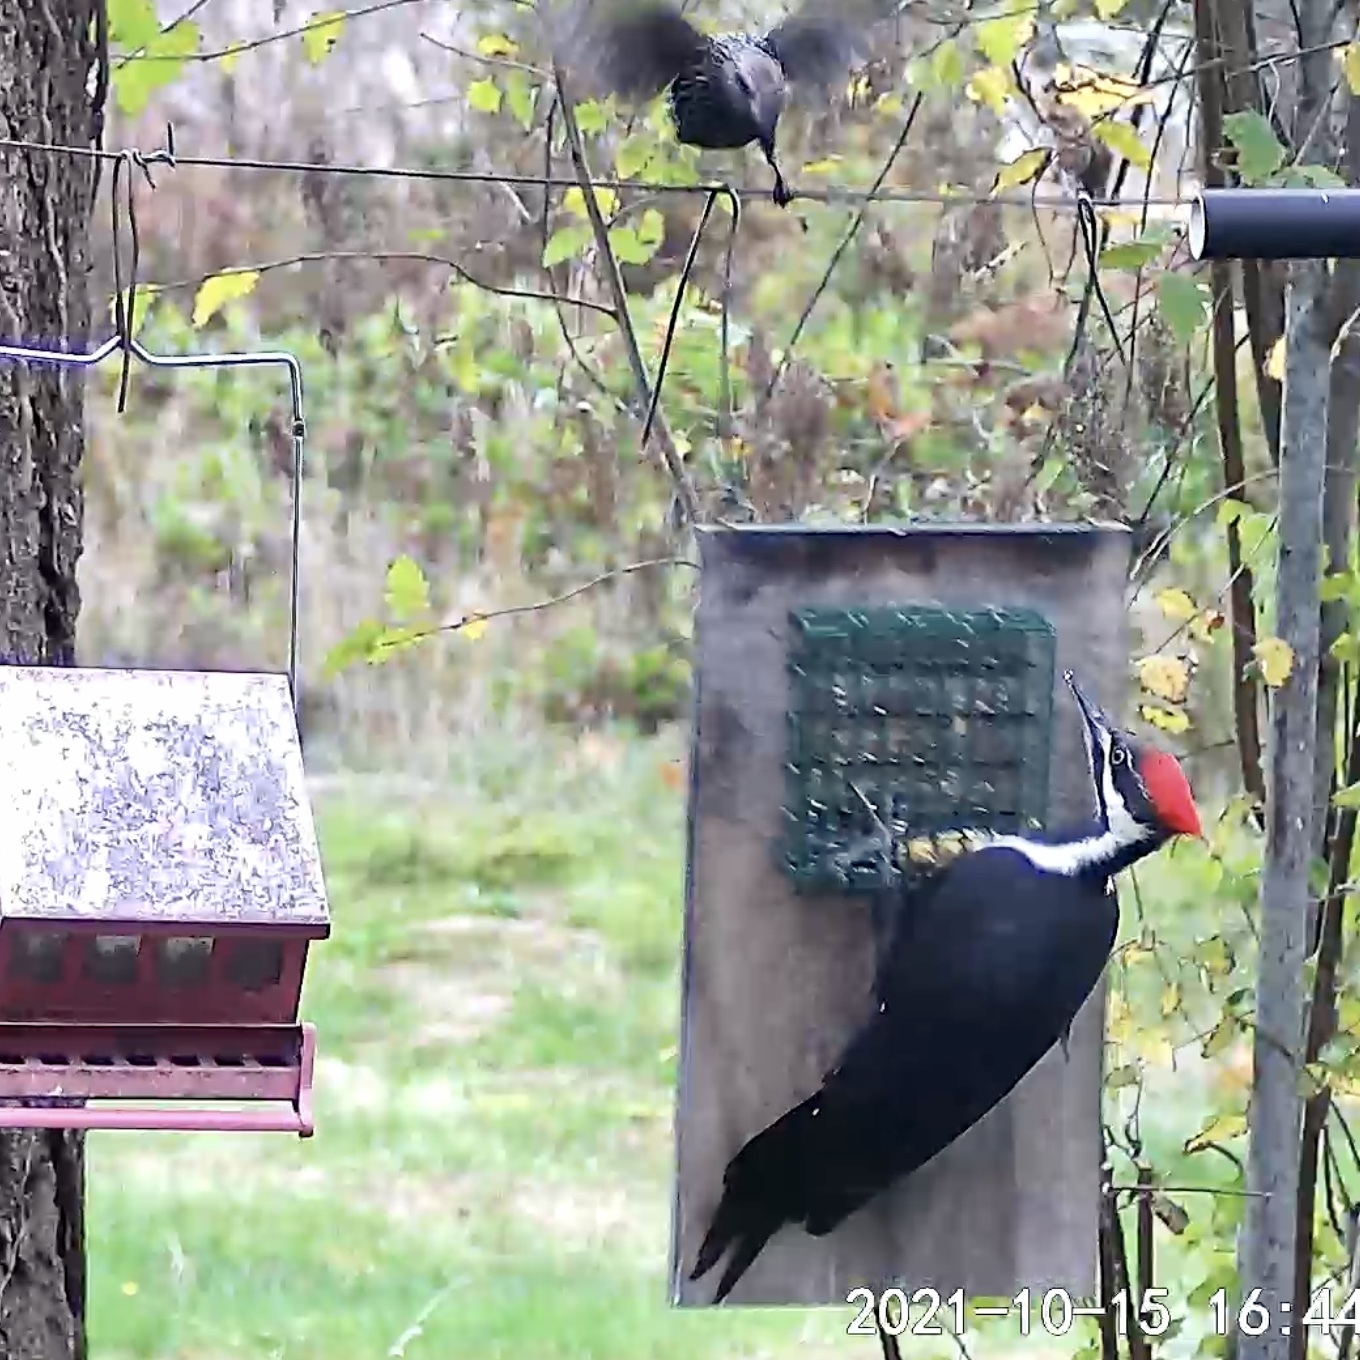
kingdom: Animalia
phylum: Chordata
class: Aves
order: Piciformes
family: Picidae
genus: Dryocopus
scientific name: Dryocopus pileatus
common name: Pileated woodpecker
